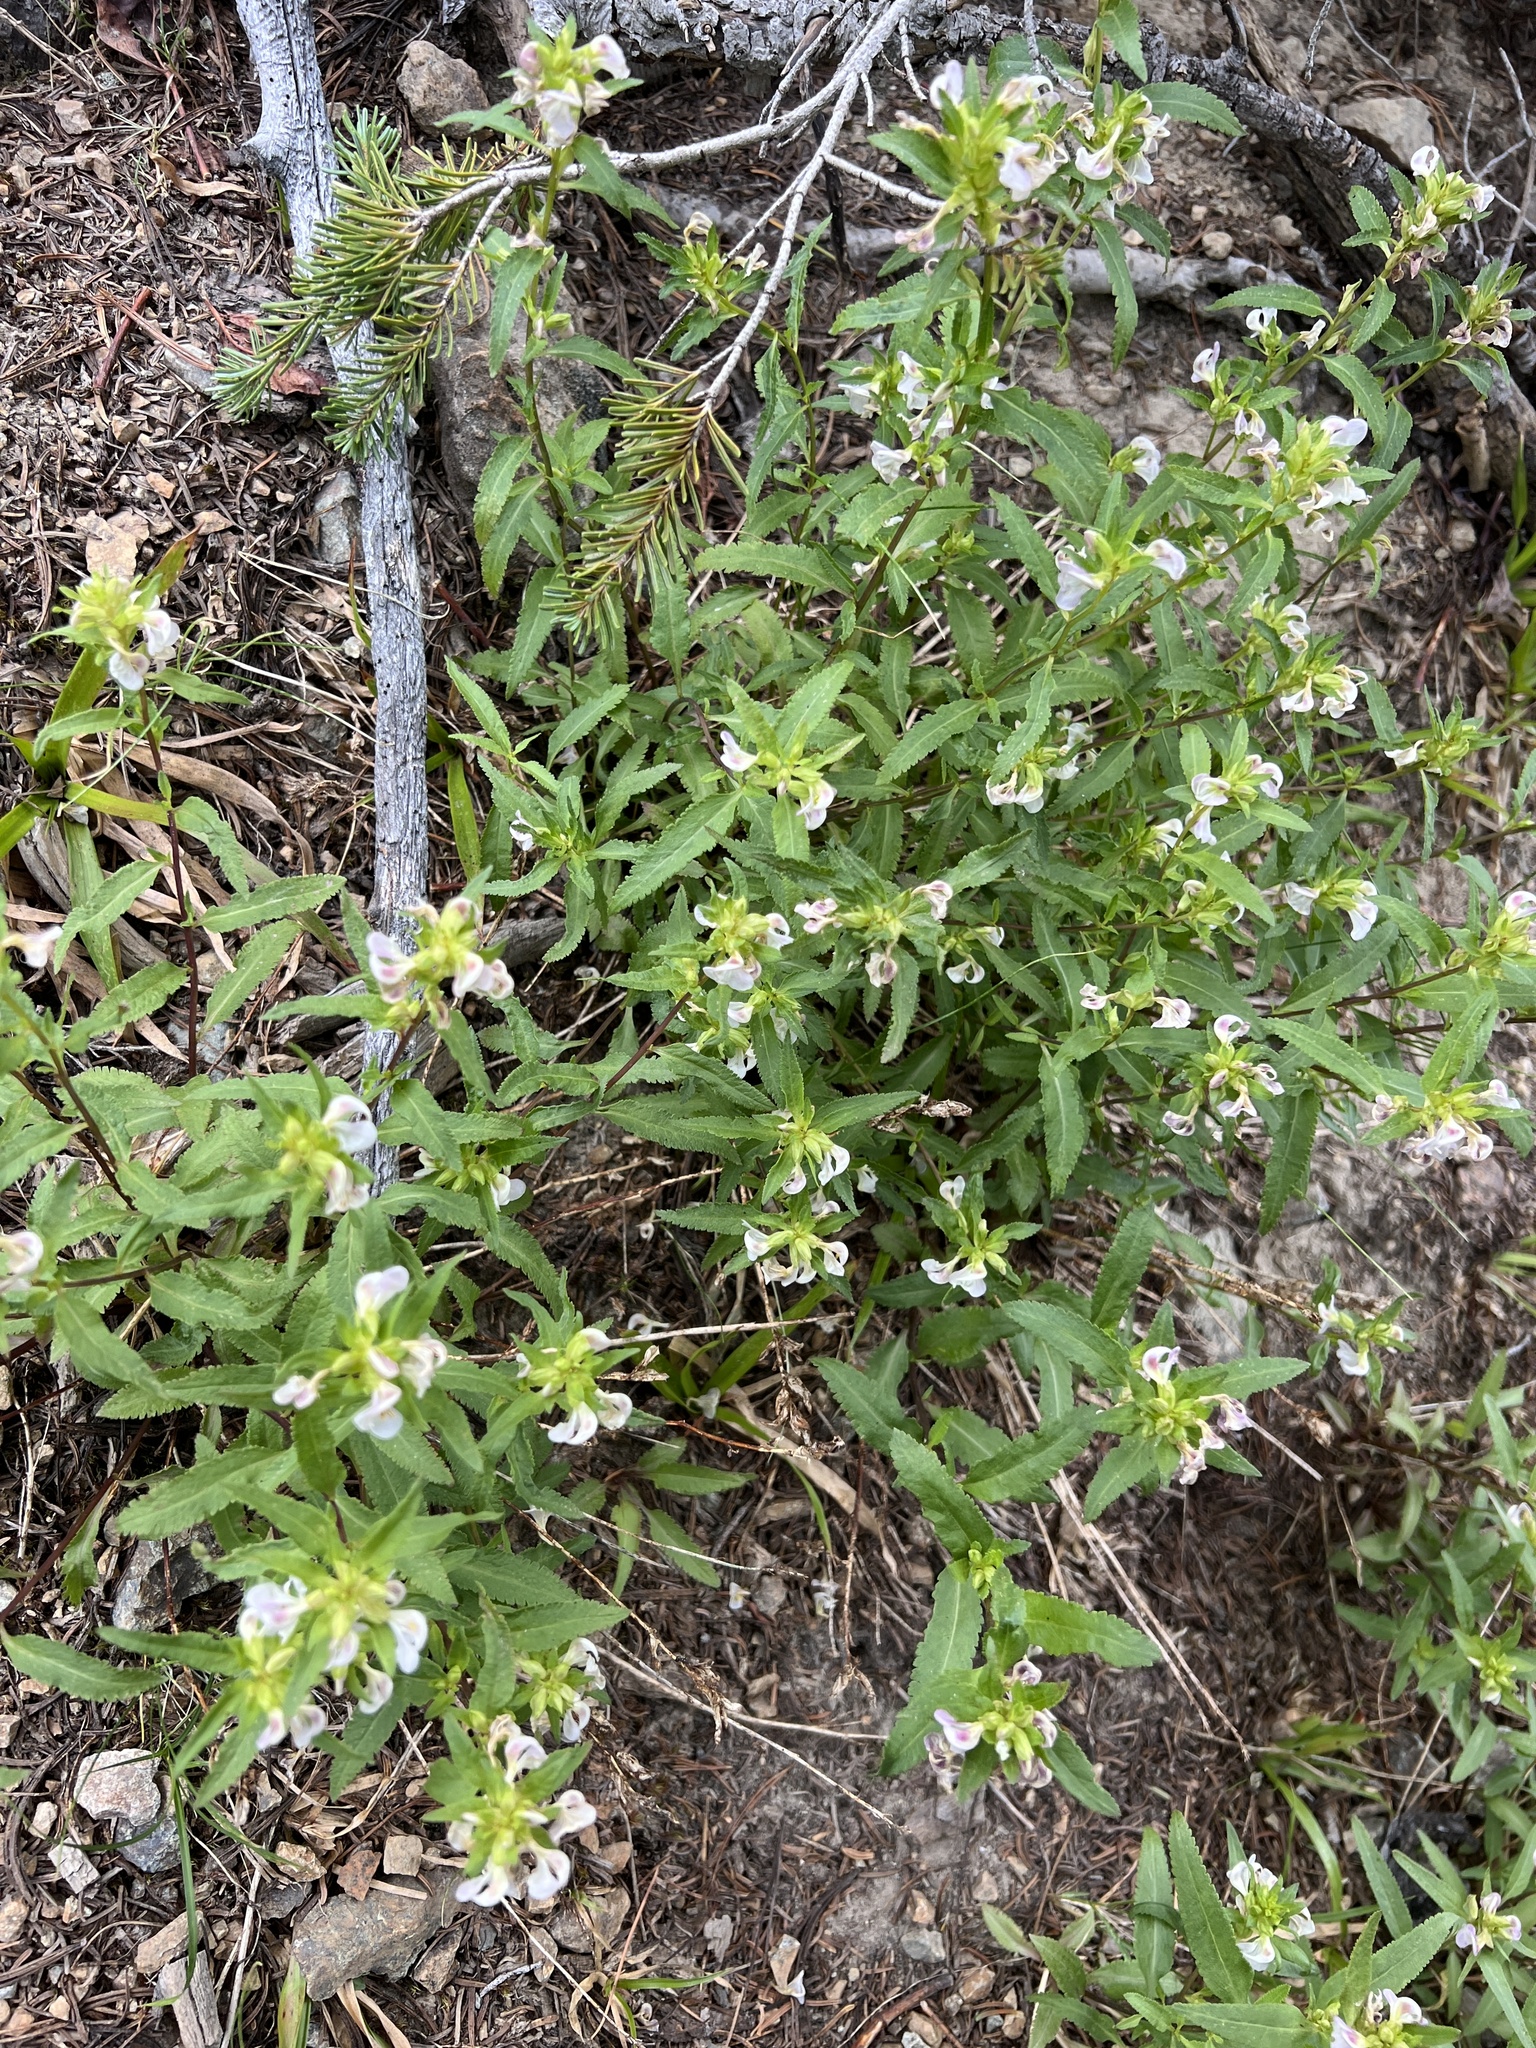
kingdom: Plantae
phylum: Tracheophyta
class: Magnoliopsida
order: Lamiales
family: Orobanchaceae
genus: Pedicularis
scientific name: Pedicularis racemosa
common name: Leafy lousewort
